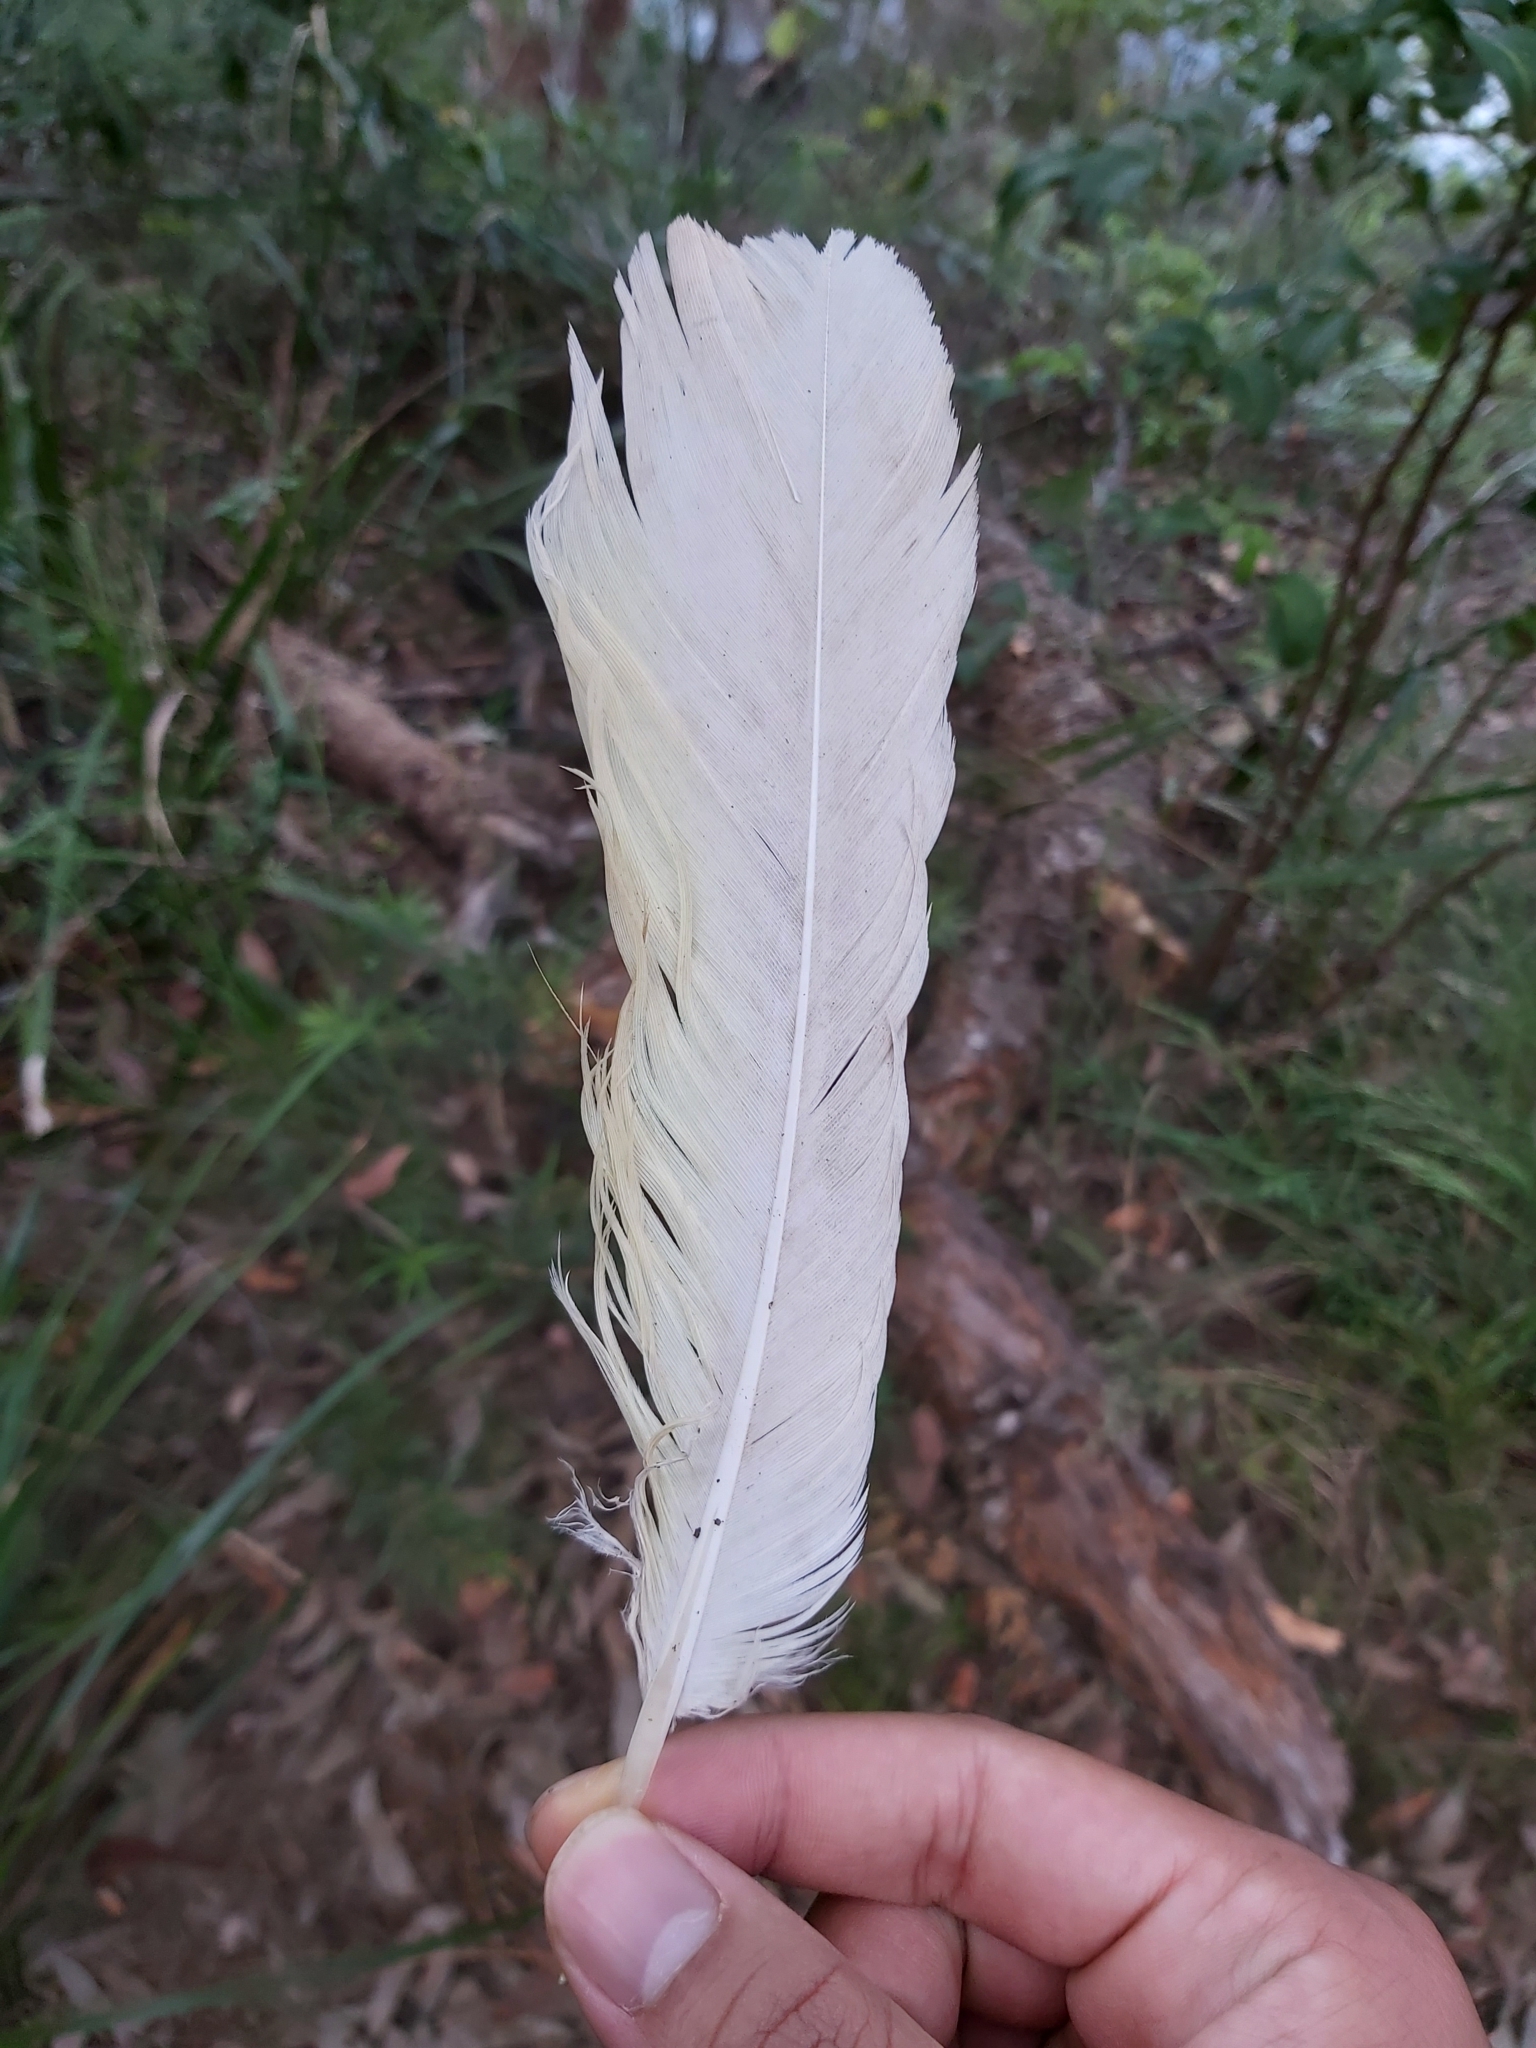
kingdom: Animalia
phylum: Chordata
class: Aves
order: Psittaciformes
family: Psittacidae
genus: Cacatua
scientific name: Cacatua galerita
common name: Sulphur-crested cockatoo
